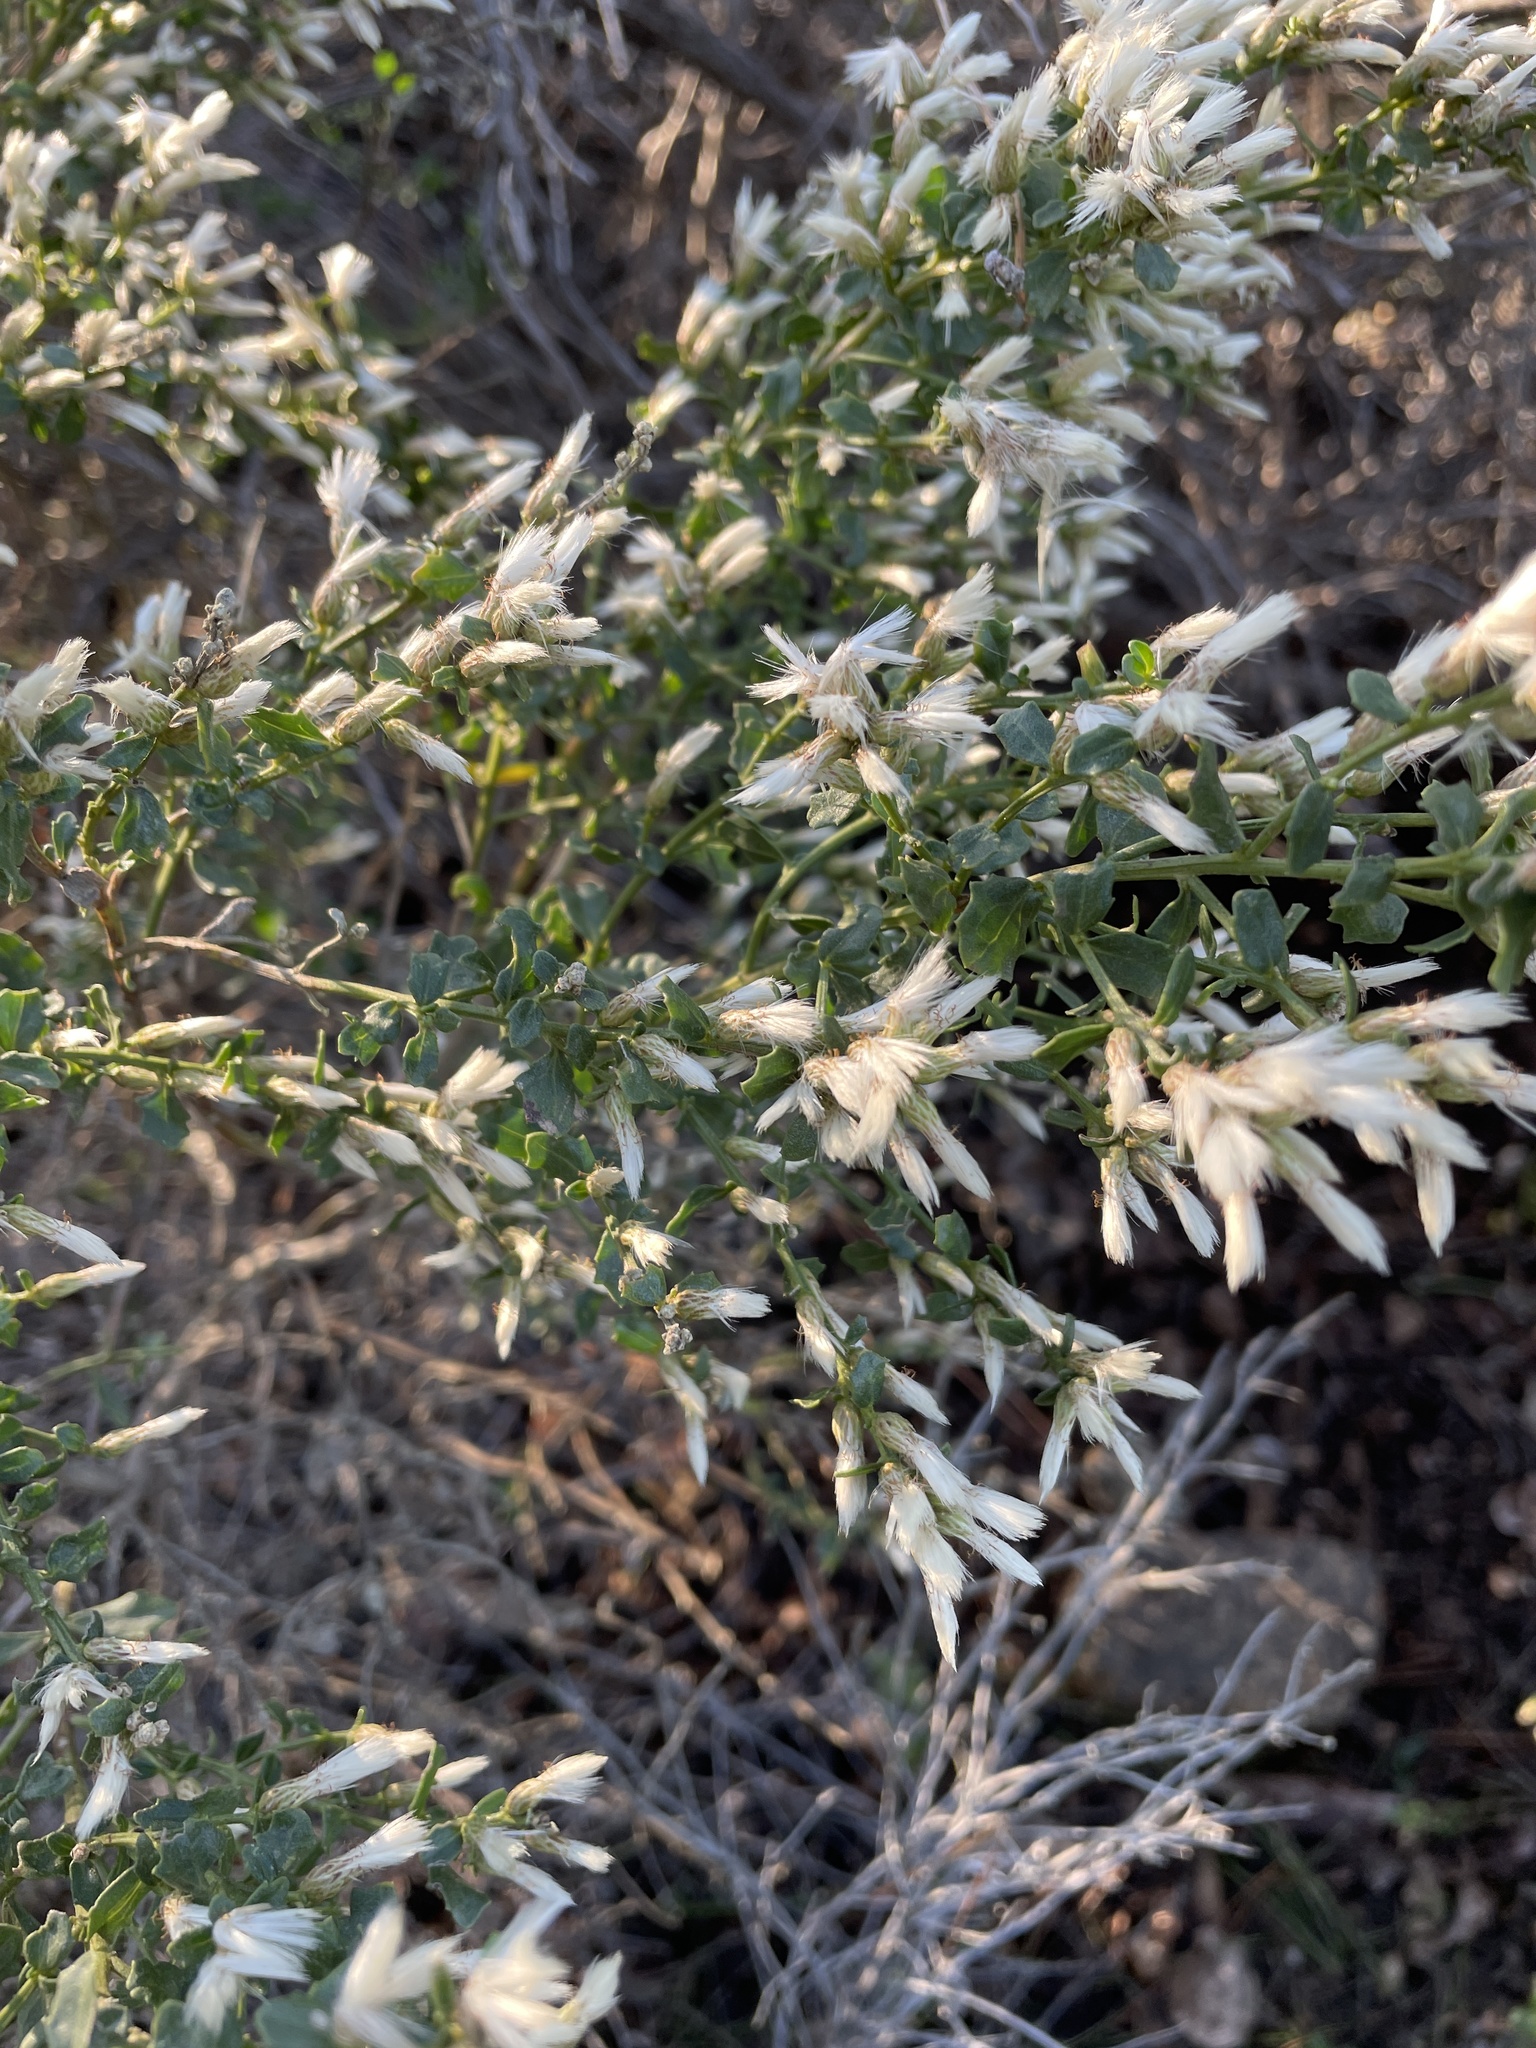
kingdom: Plantae
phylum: Tracheophyta
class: Magnoliopsida
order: Asterales
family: Asteraceae
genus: Baccharis
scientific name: Baccharis pilularis
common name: Coyotebrush
